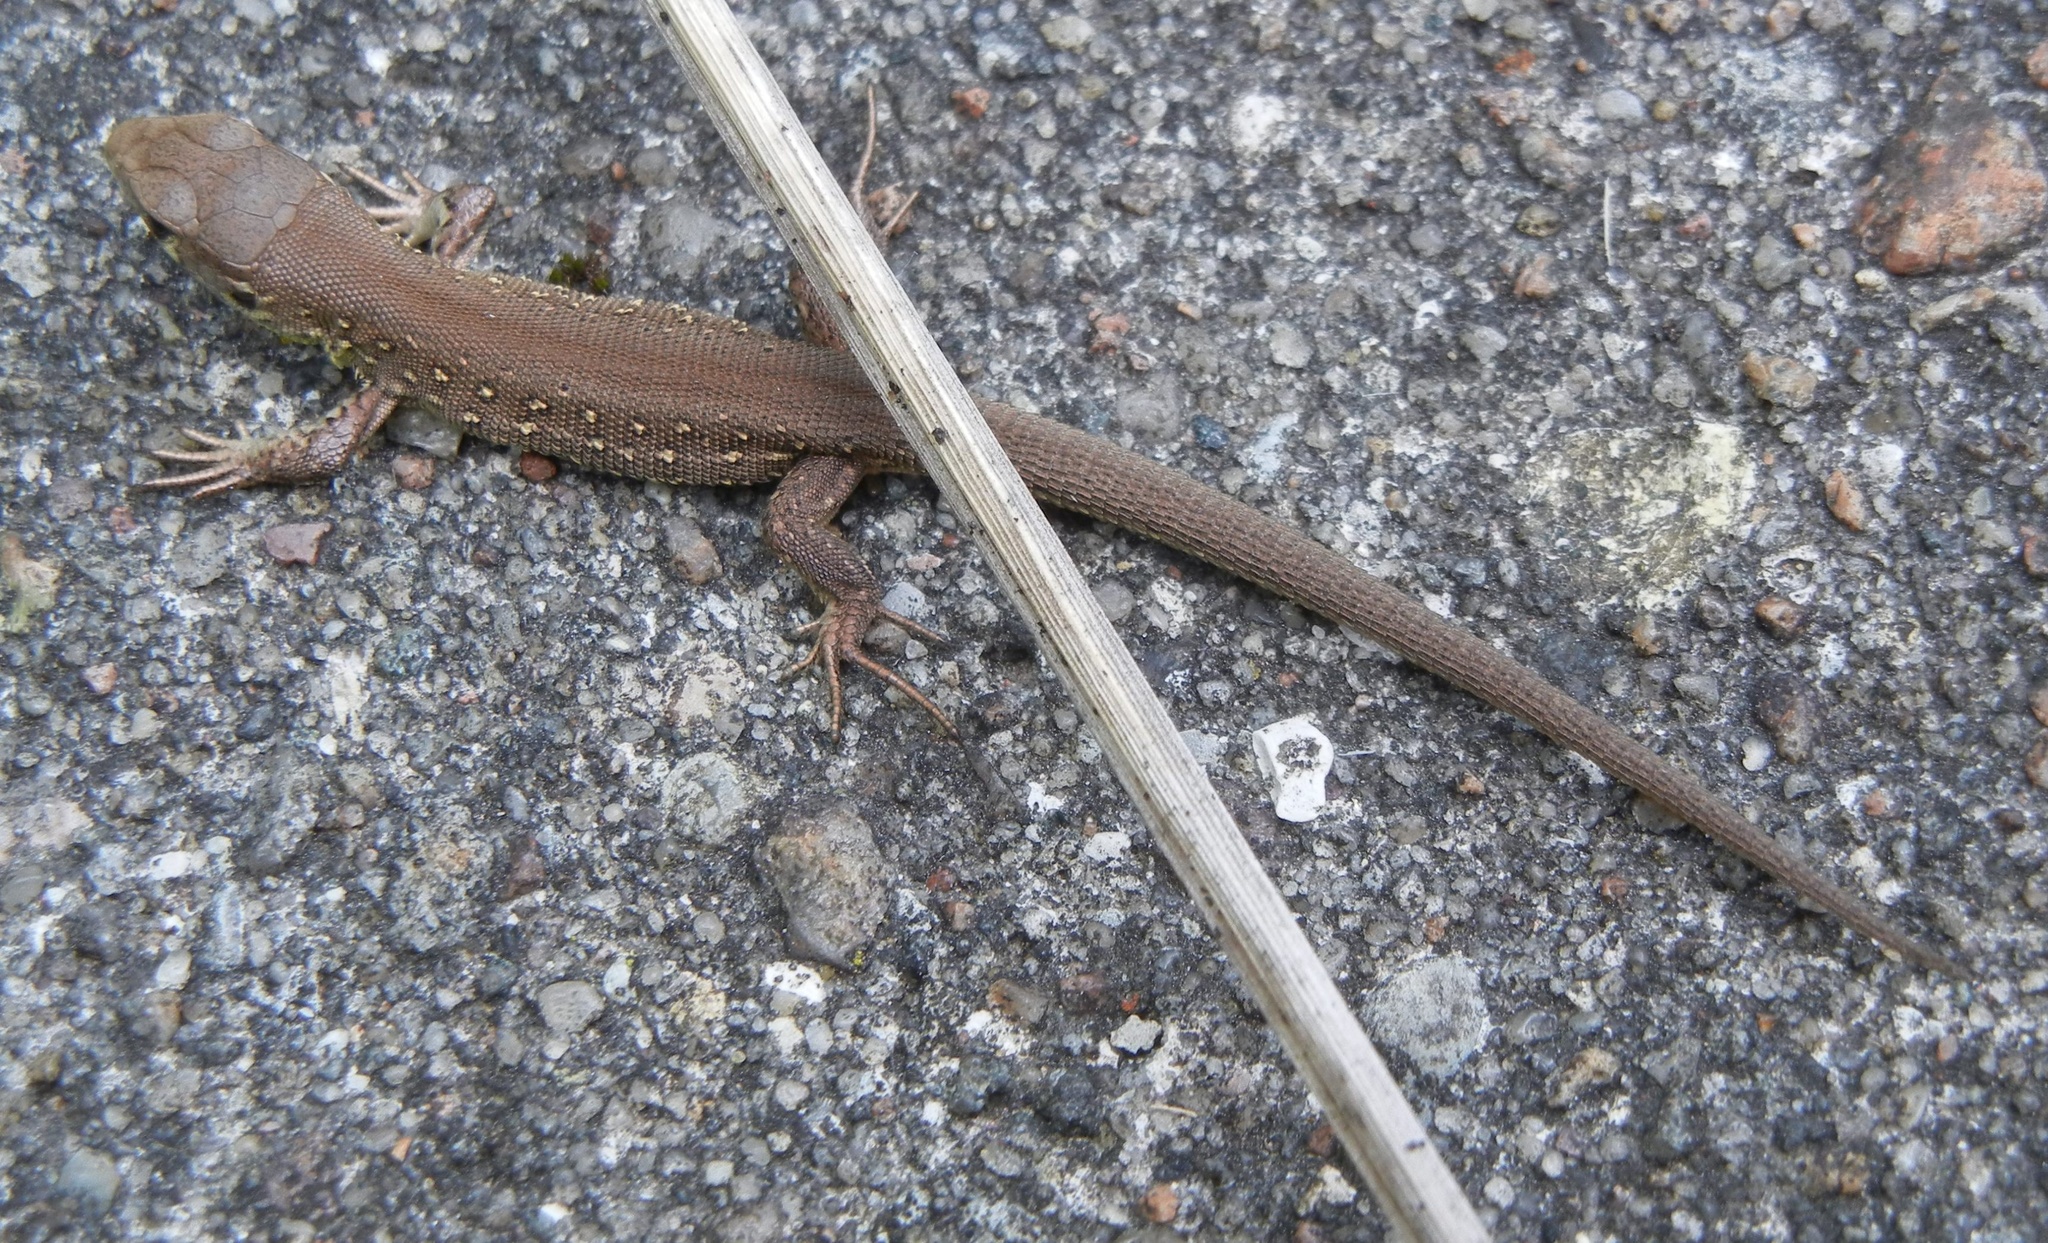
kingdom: Animalia
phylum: Chordata
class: Squamata
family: Lacertidae
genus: Lacerta
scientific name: Lacerta agilis
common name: Sand lizard
